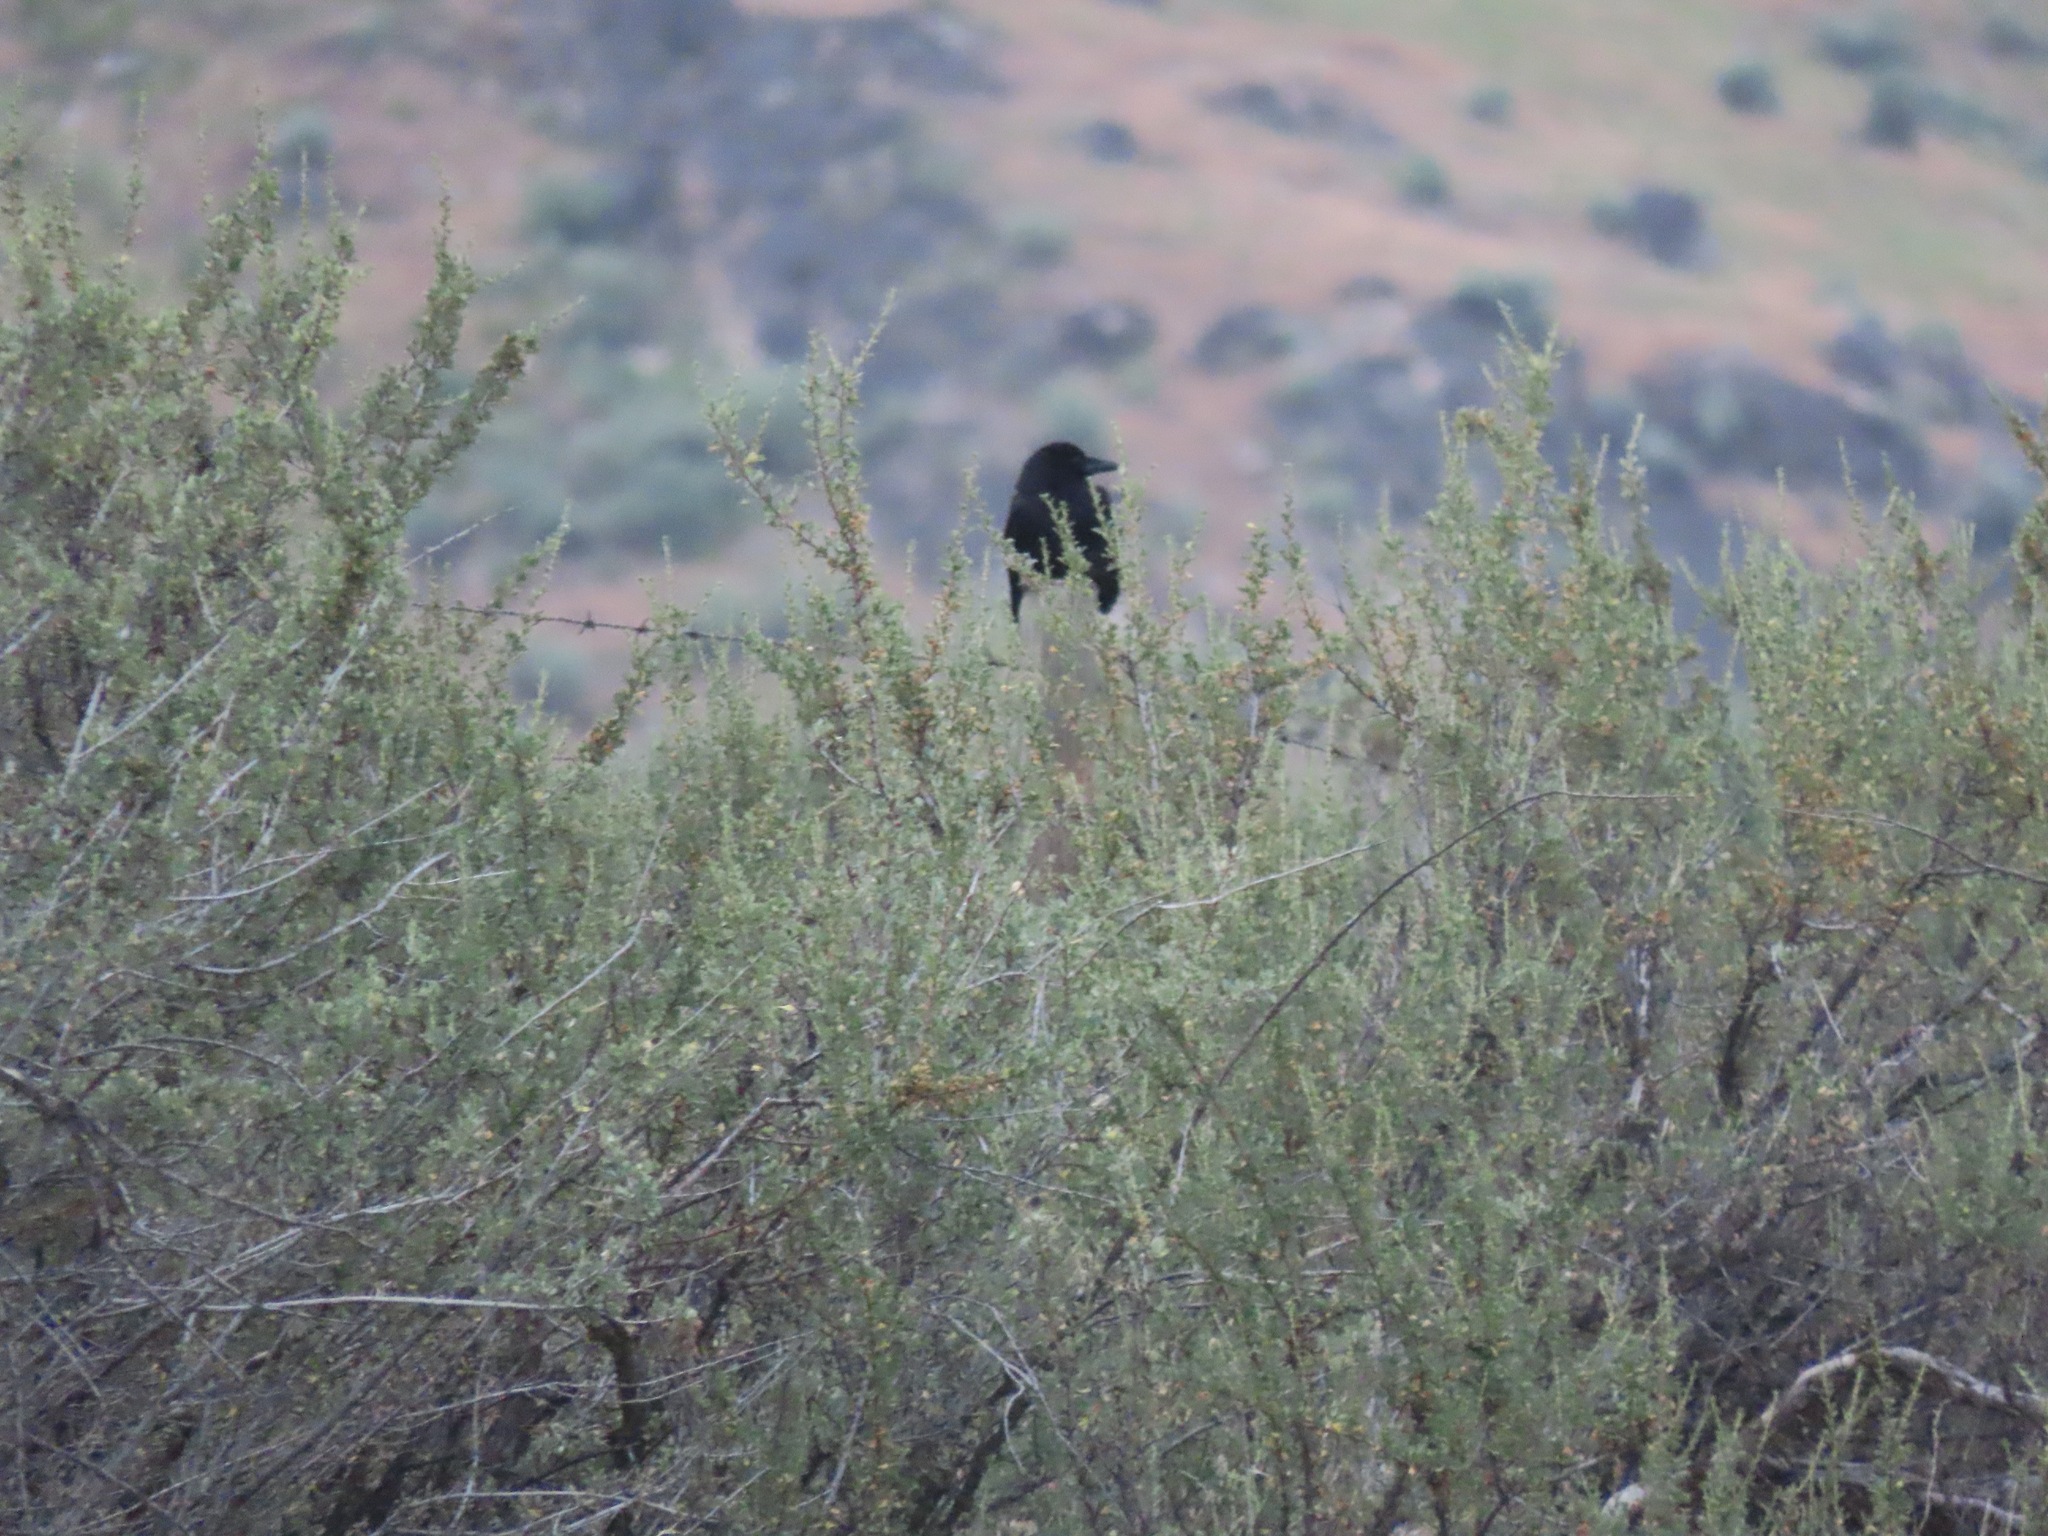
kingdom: Animalia
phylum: Chordata
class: Aves
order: Passeriformes
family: Corvidae
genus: Corvus
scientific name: Corvus brachyrhynchos
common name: American crow
